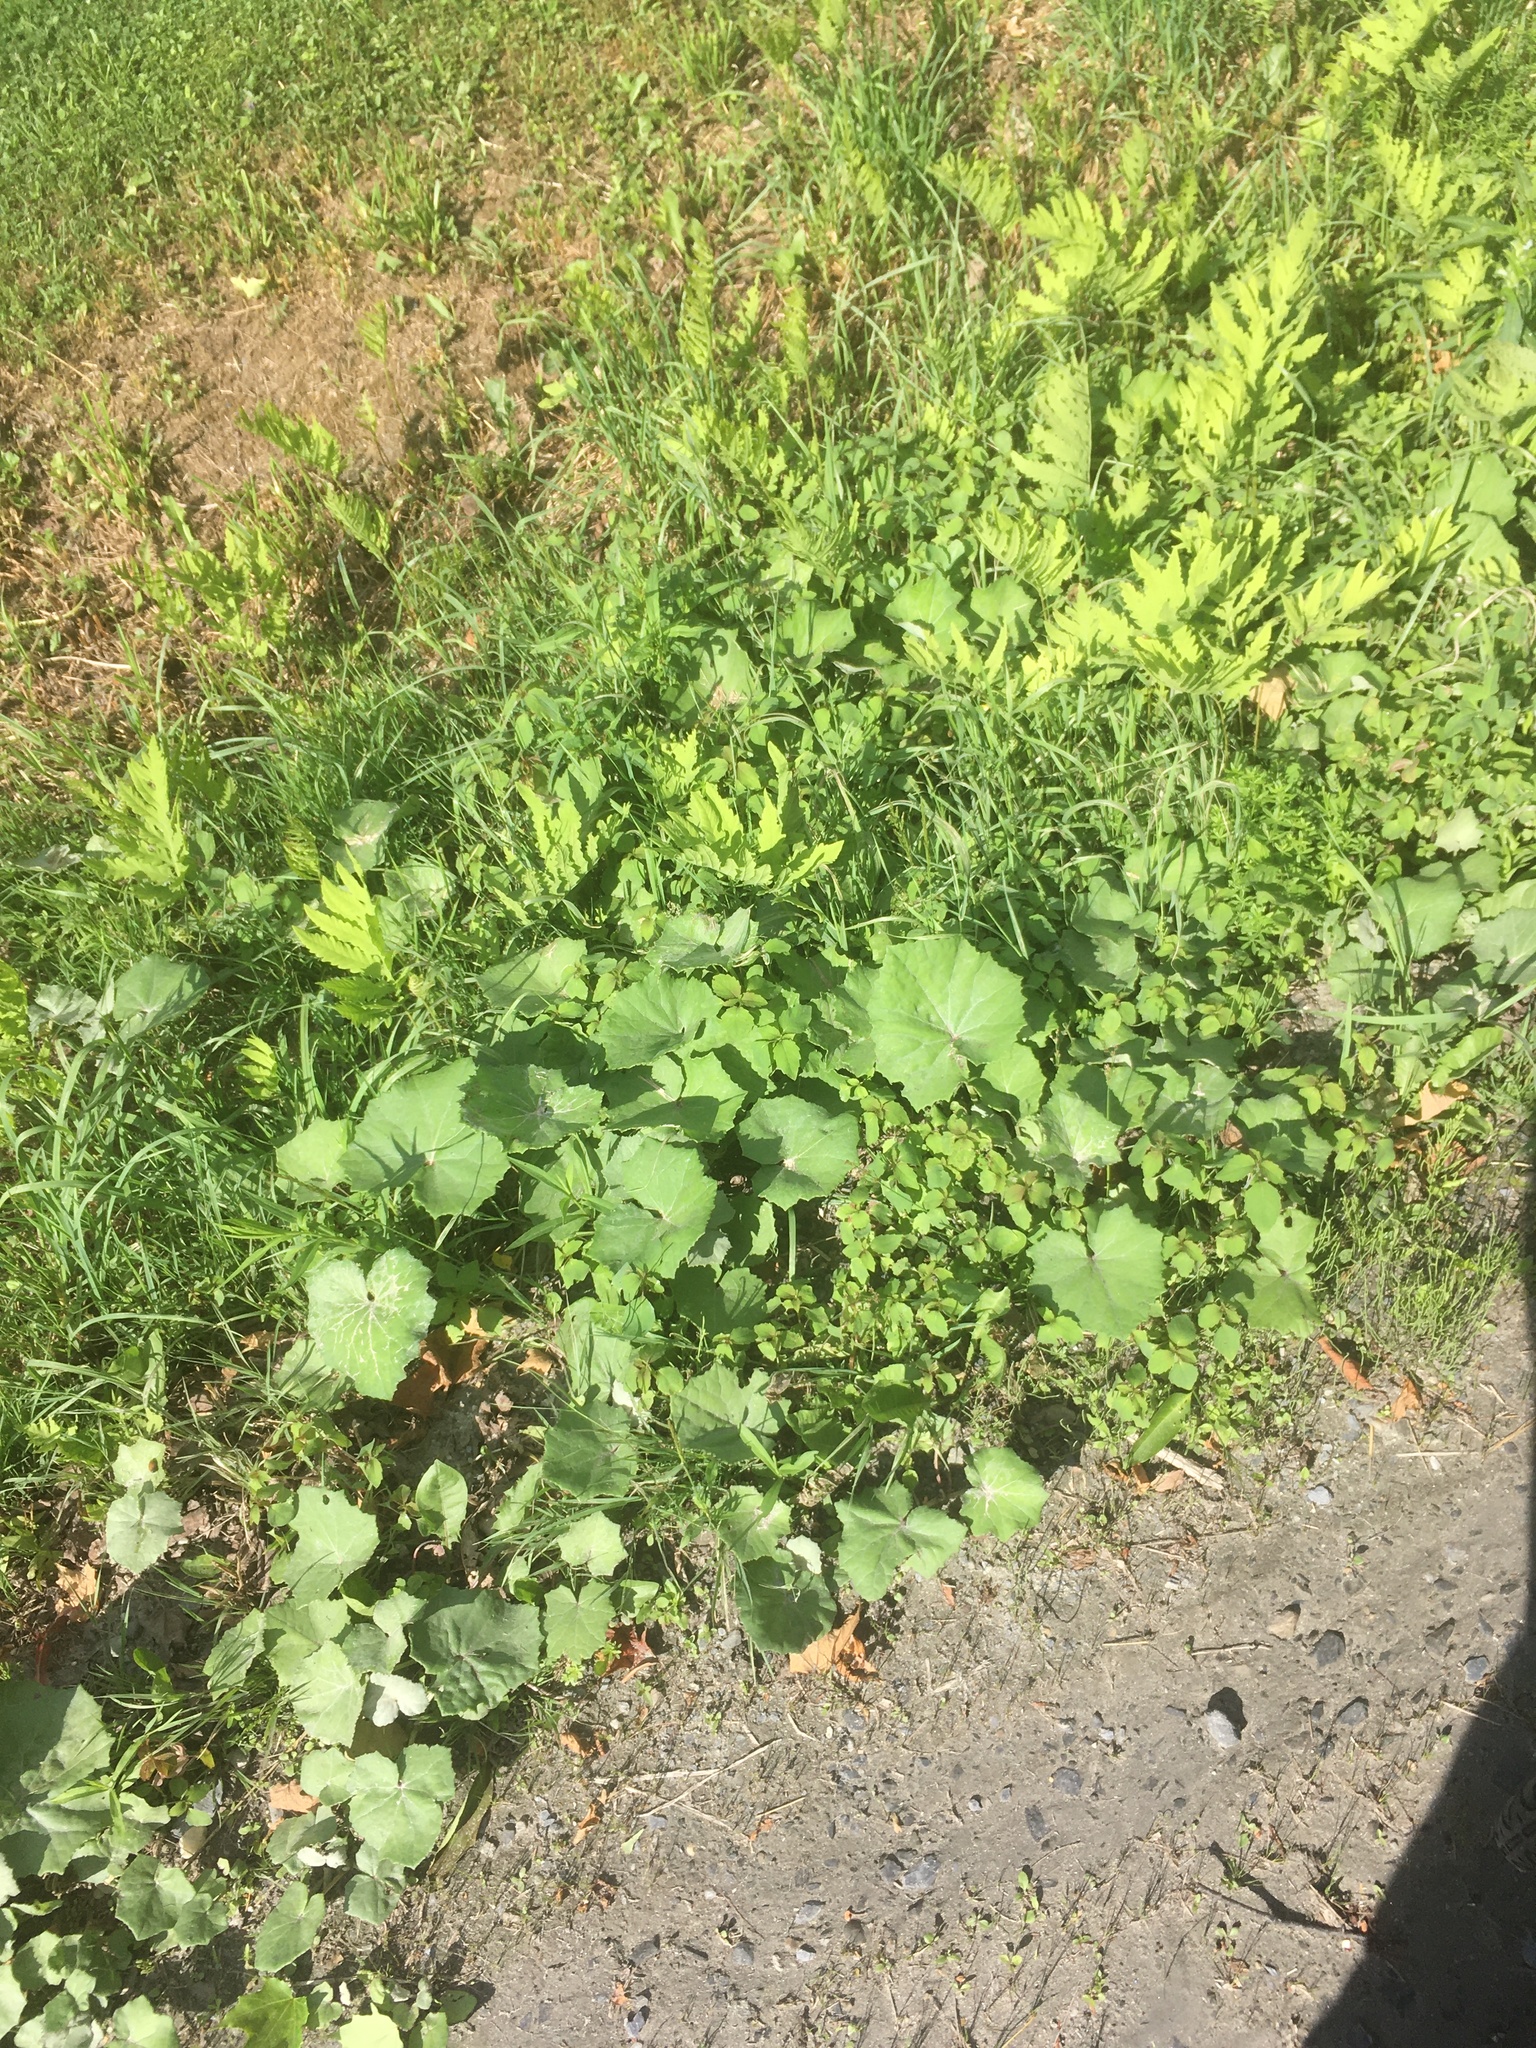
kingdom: Plantae
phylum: Tracheophyta
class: Magnoliopsida
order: Asterales
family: Asteraceae
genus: Tussilago
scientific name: Tussilago farfara
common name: Coltsfoot
